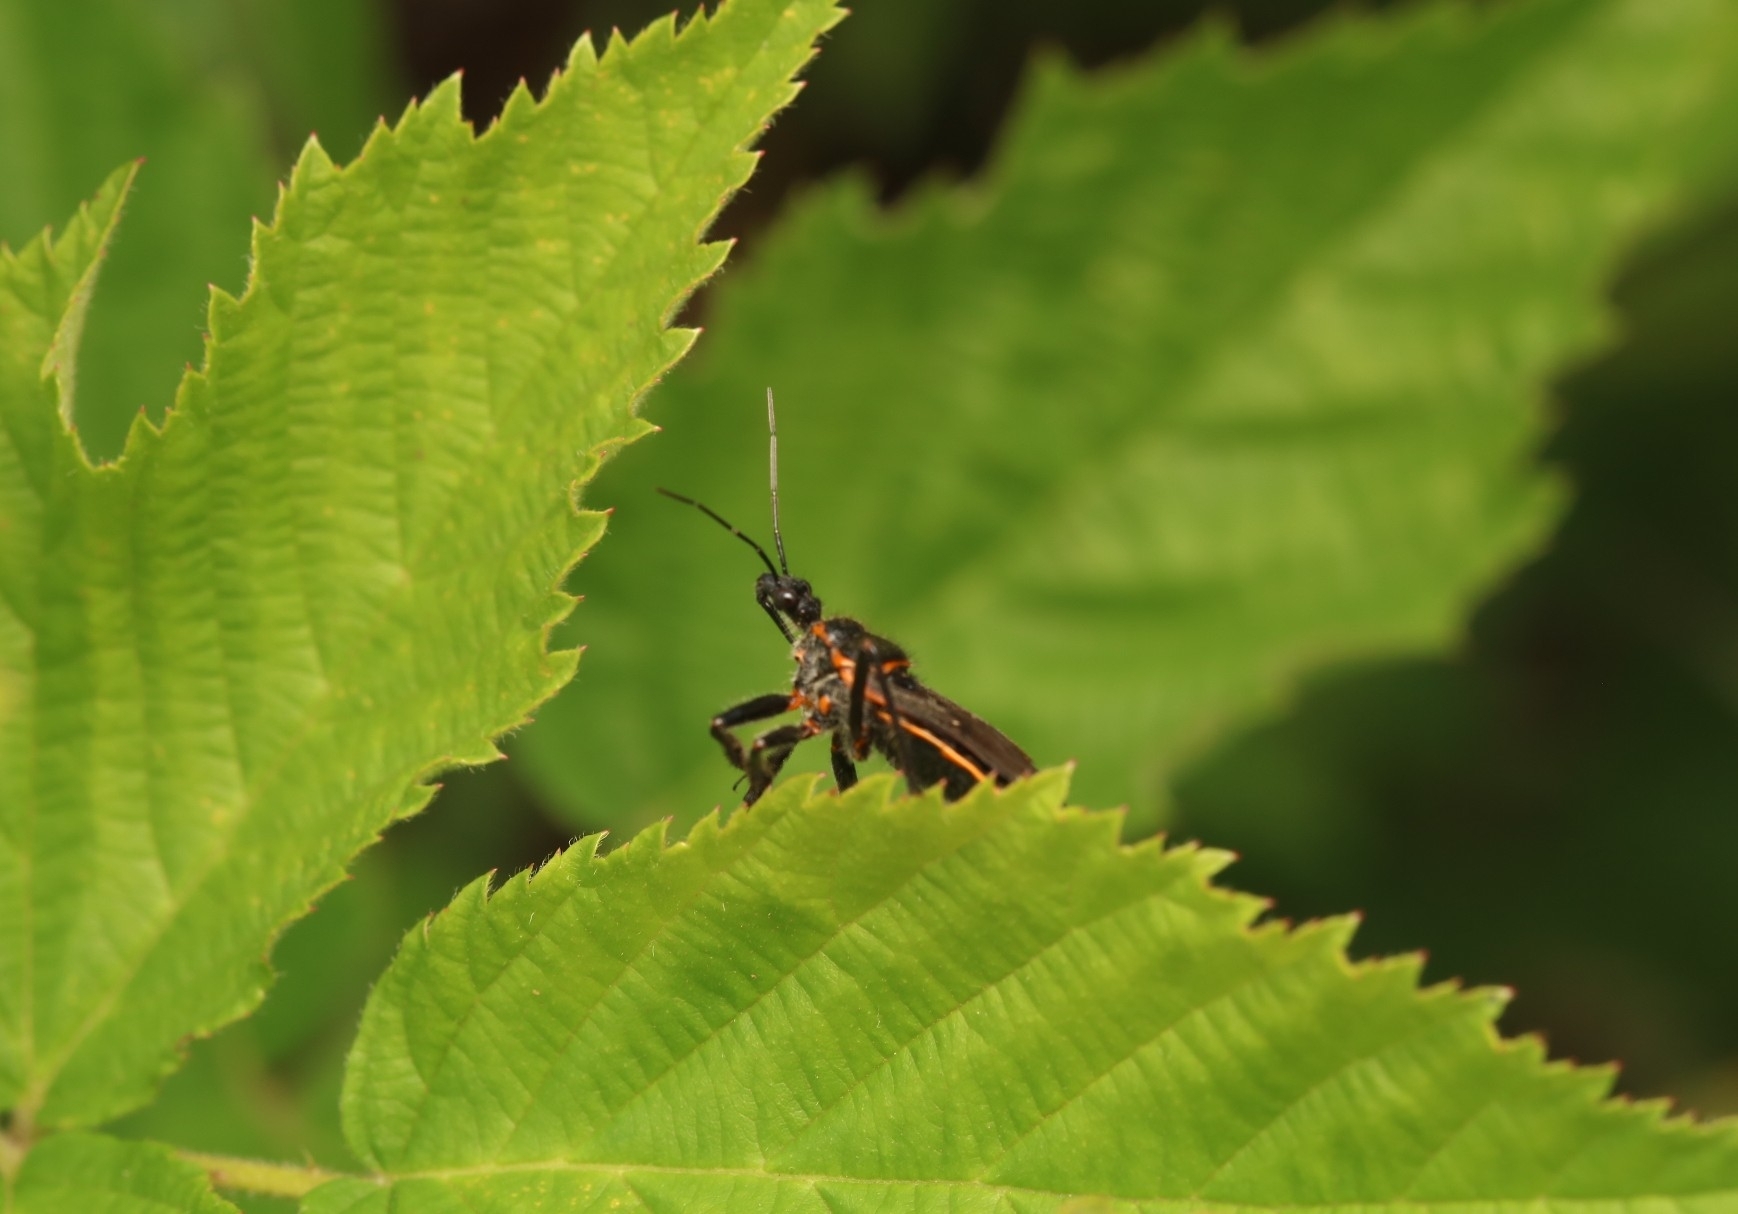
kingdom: Animalia
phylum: Arthropoda
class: Insecta
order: Hemiptera
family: Reduviidae
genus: Apiomerus
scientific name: Apiomerus crassipes
